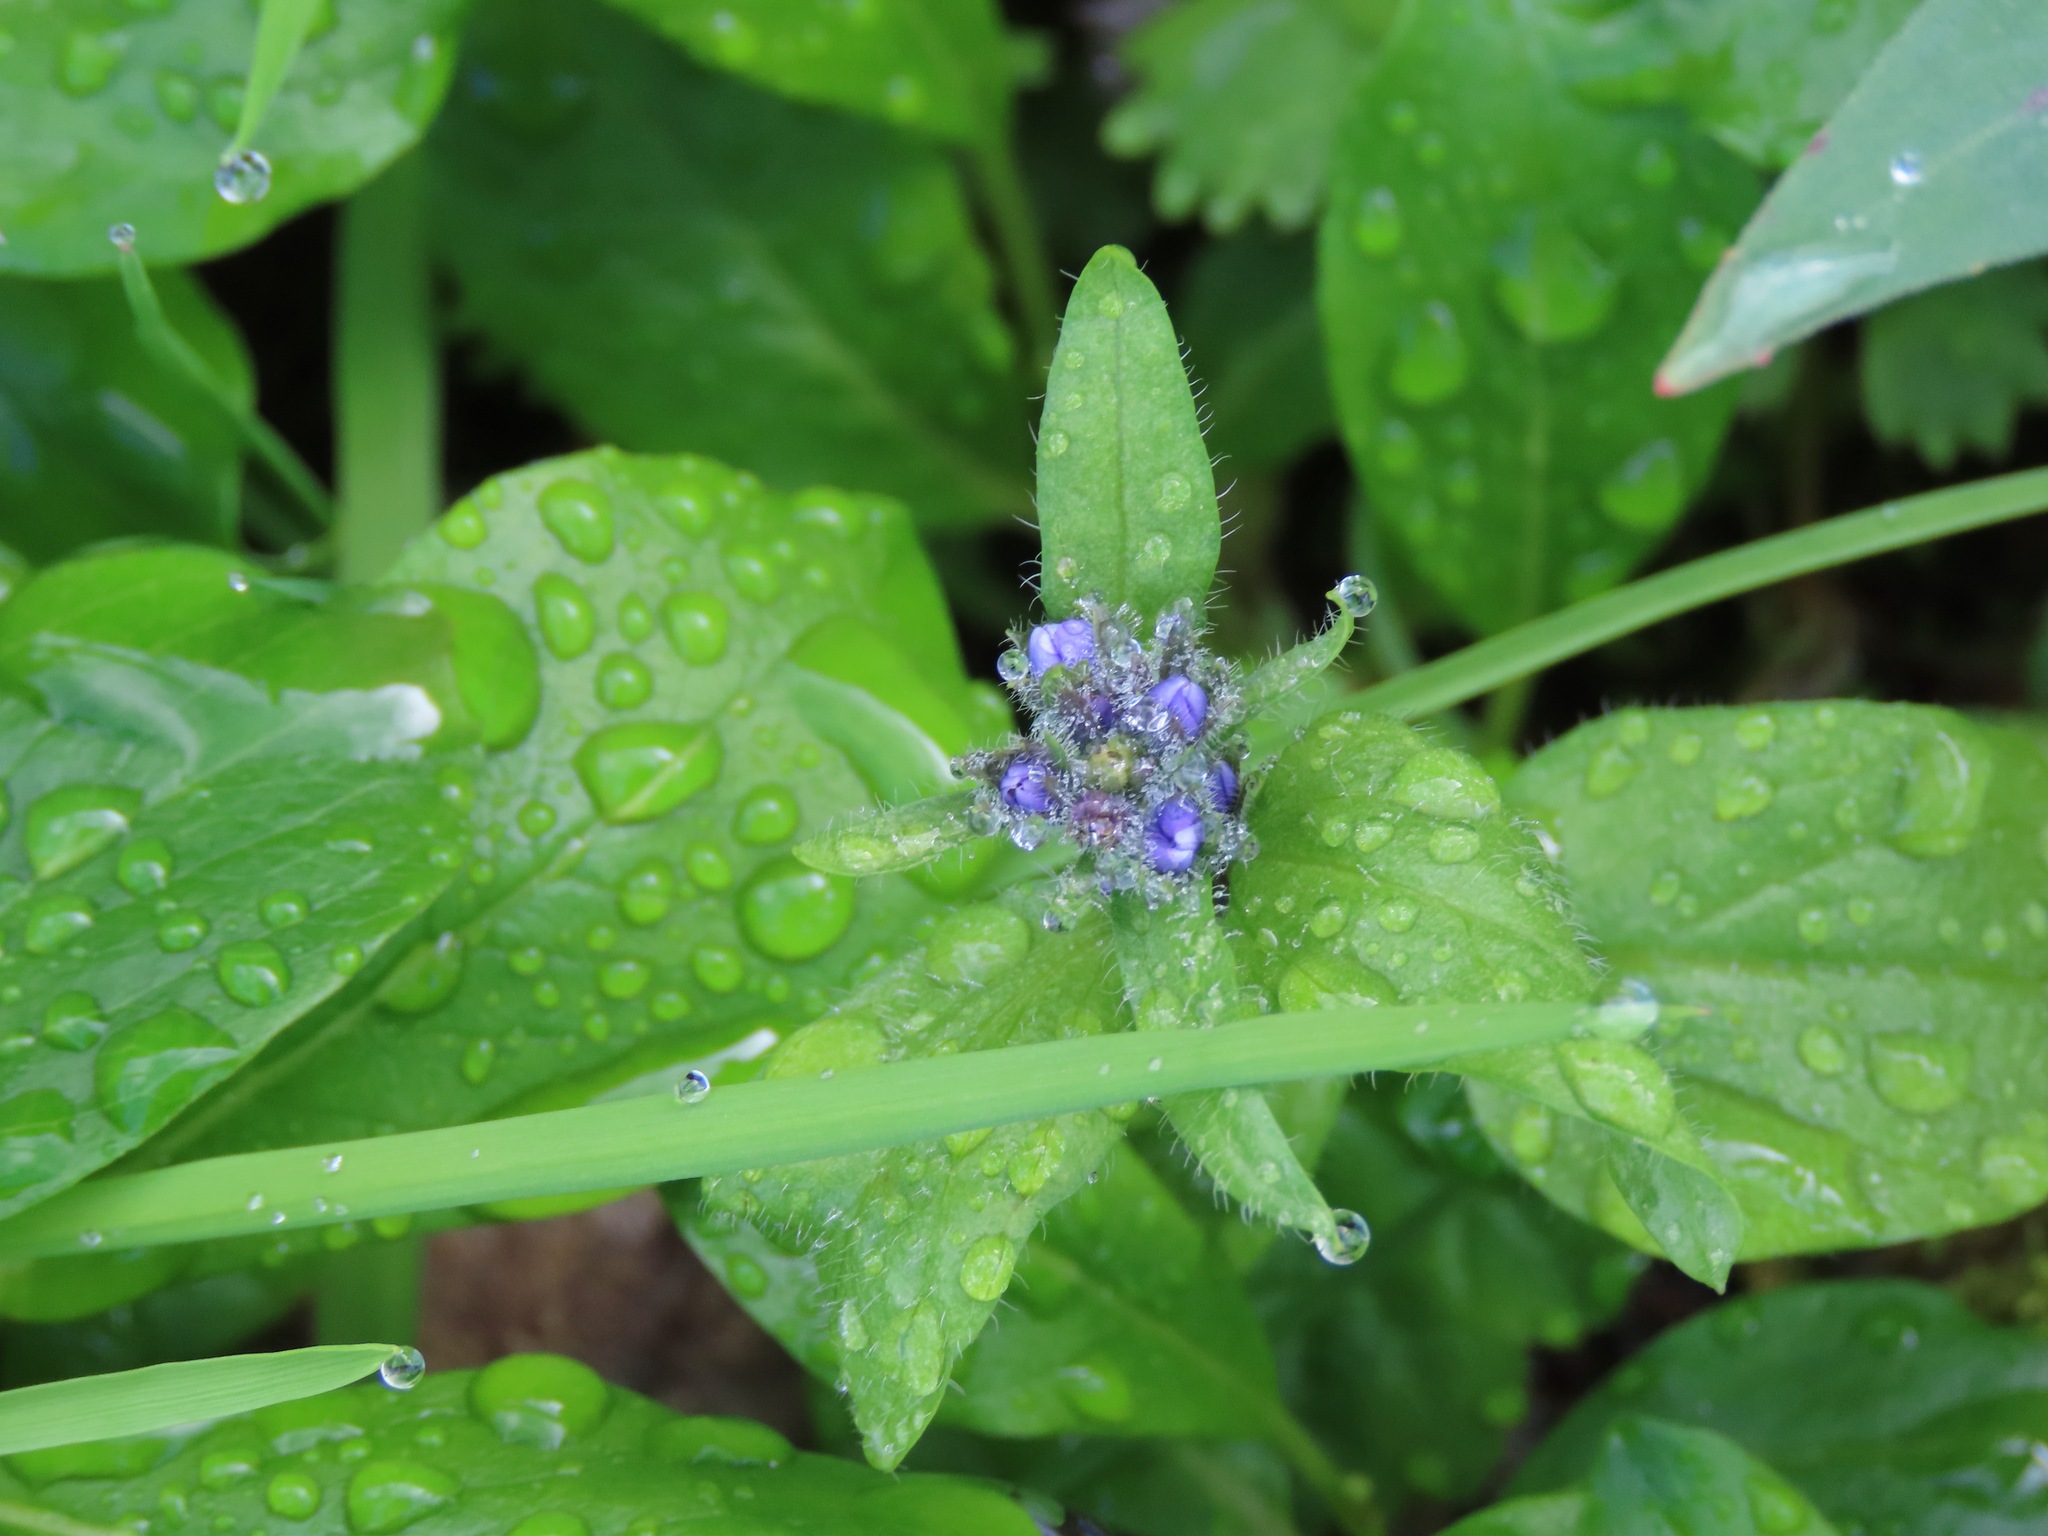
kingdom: Plantae
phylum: Tracheophyta
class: Magnoliopsida
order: Lamiales
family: Plantaginaceae
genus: Veronica
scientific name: Veronica wormskjoldii
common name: American alpine speedwell
